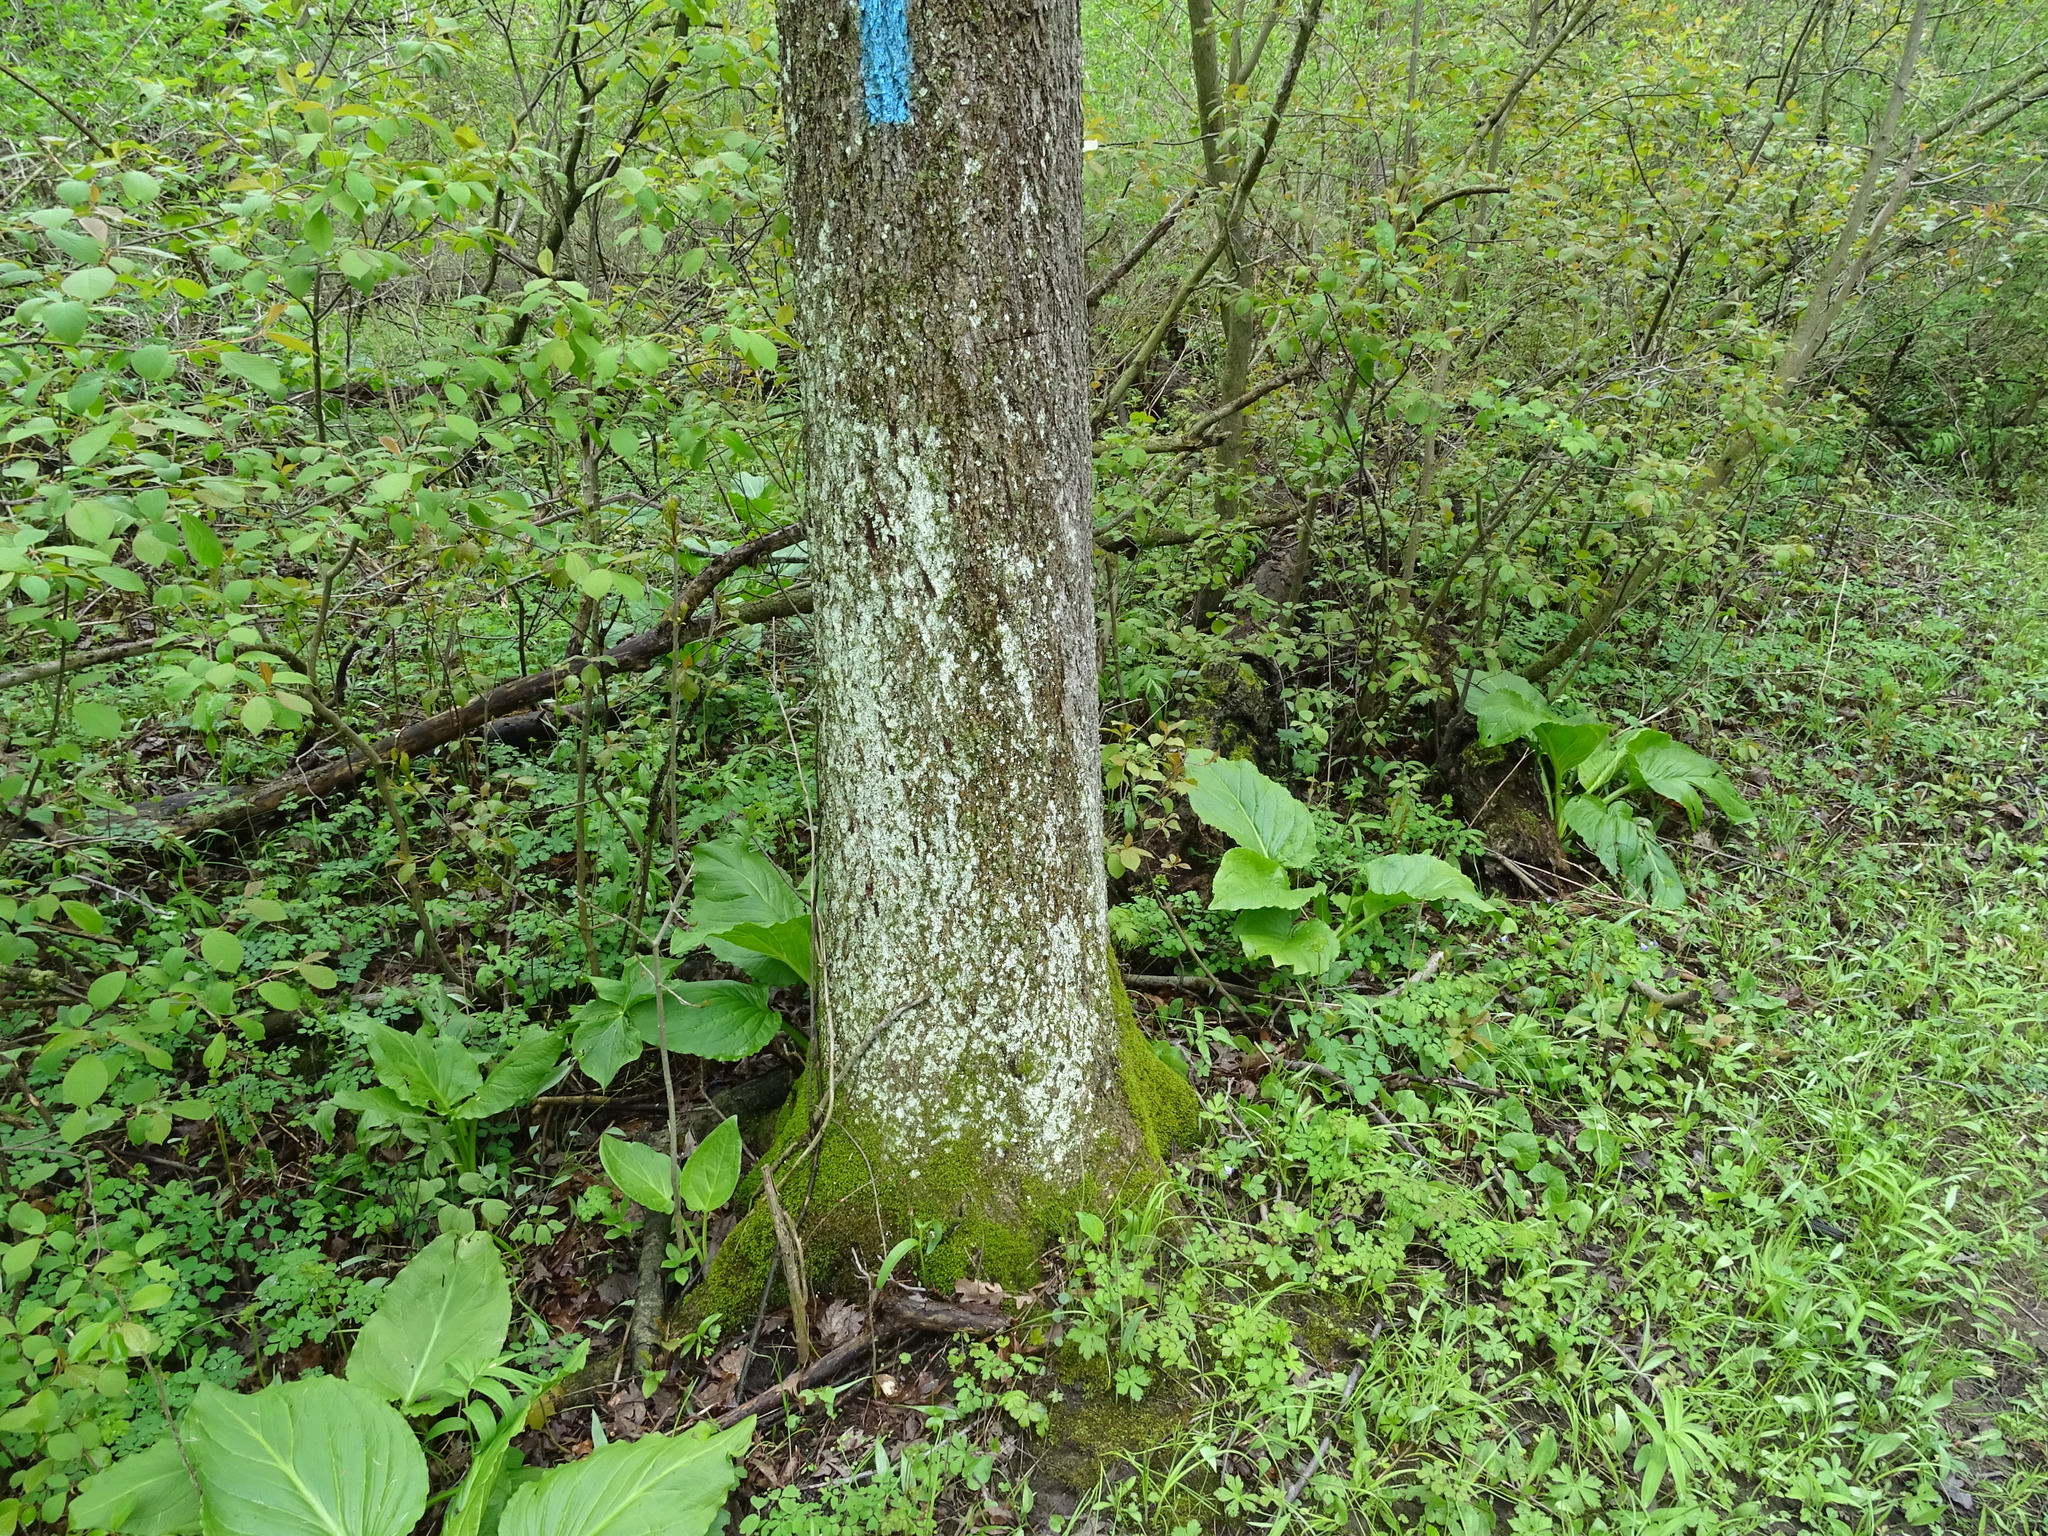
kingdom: Plantae
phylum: Tracheophyta
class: Magnoliopsida
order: Fagales
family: Juglandaceae
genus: Carya
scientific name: Carya cordiformis
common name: Bitternut hickory
